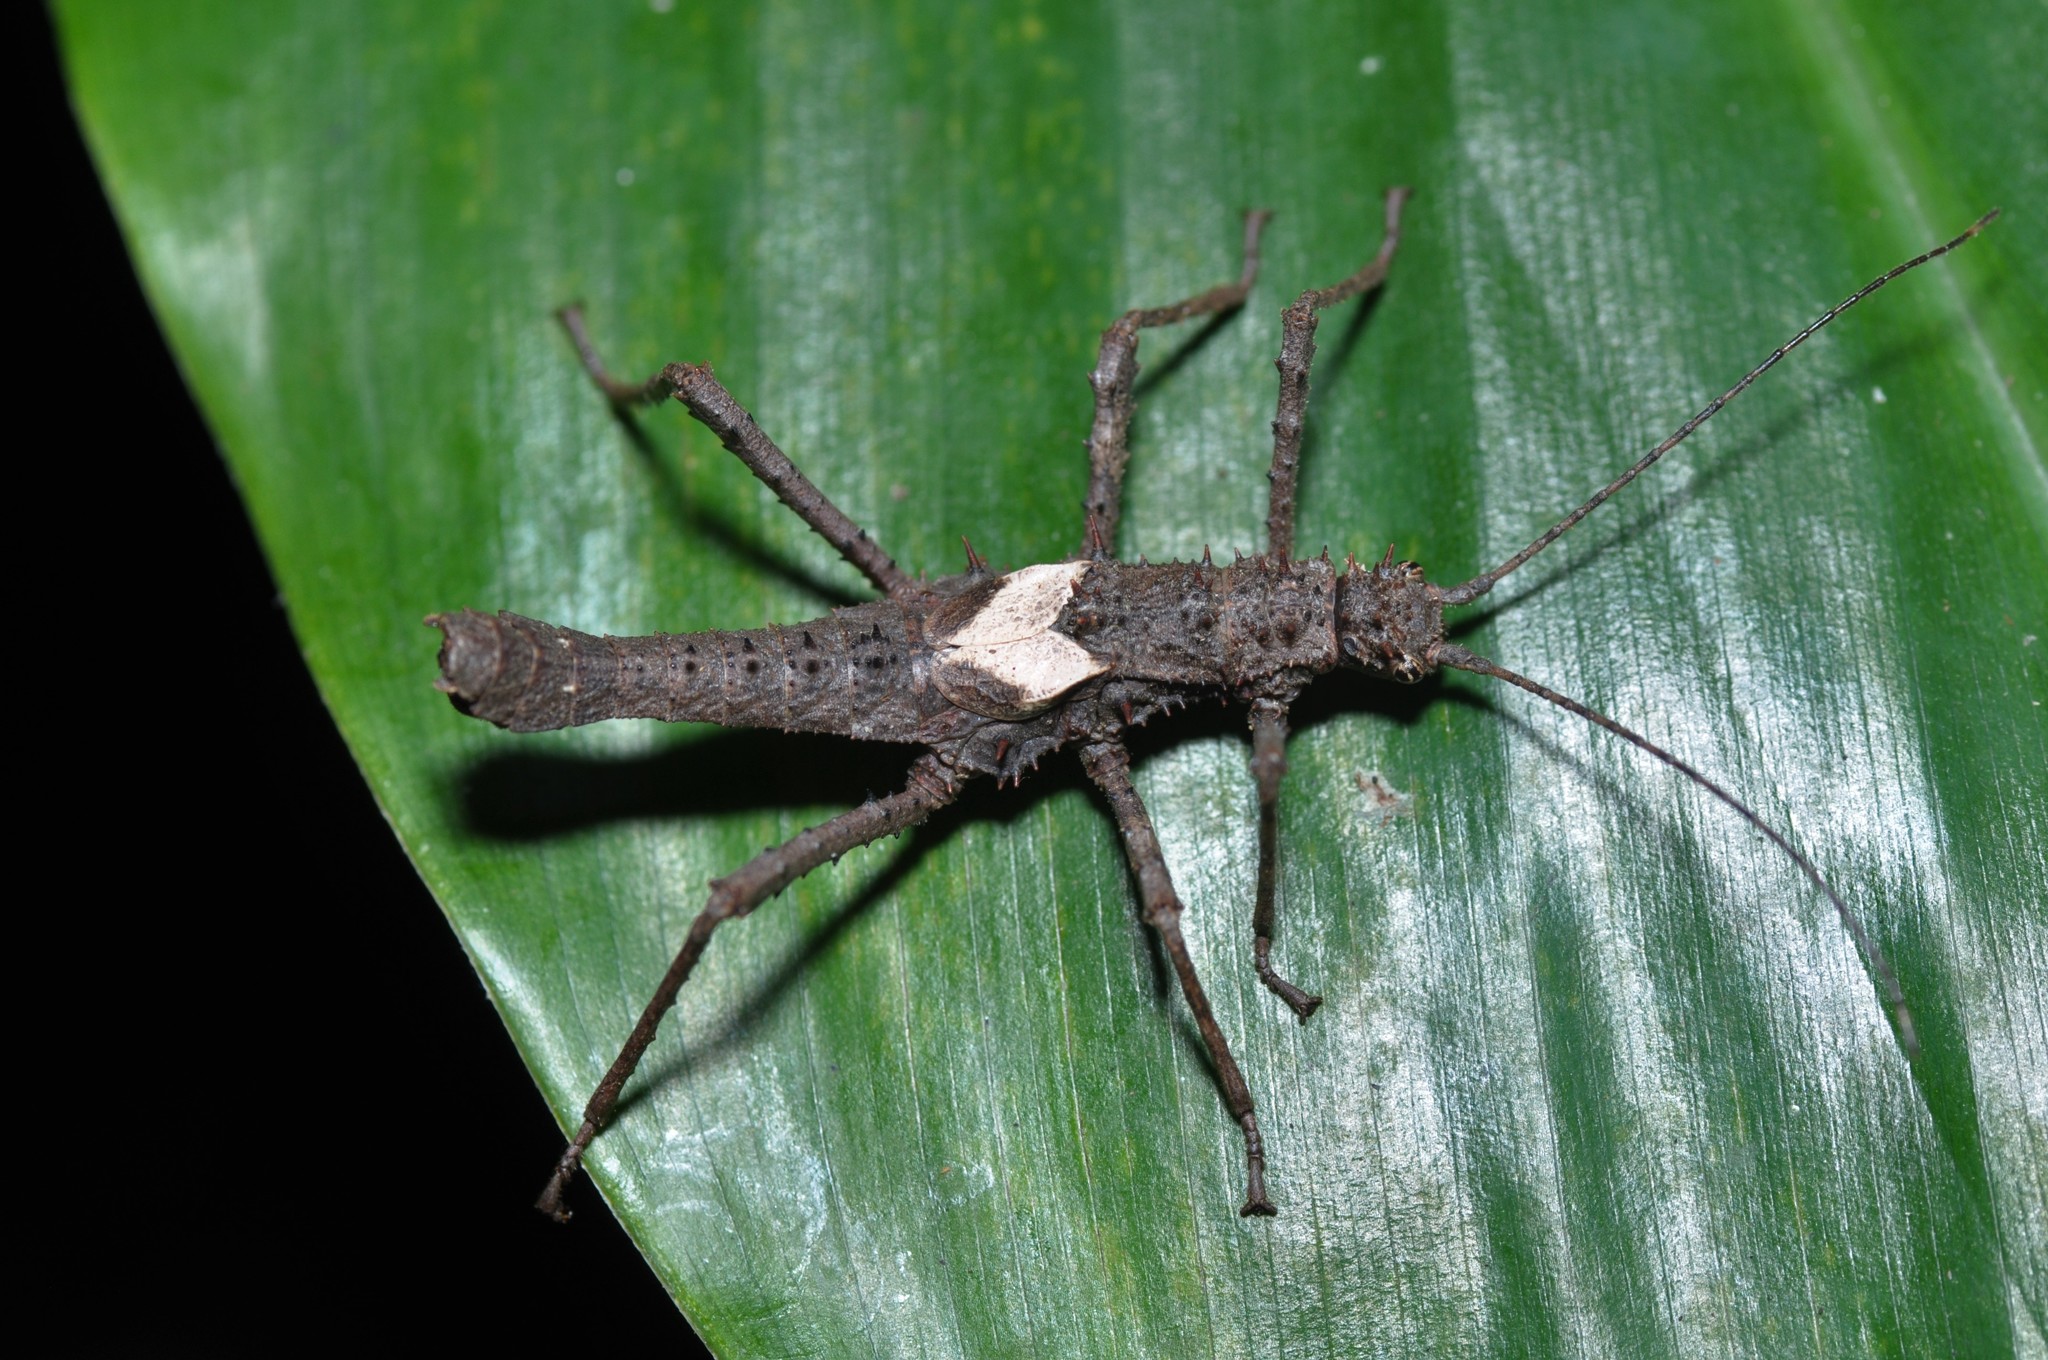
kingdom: Animalia
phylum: Arthropoda
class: Insecta
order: Phasmida
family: Heteropterygidae
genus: Haaniella
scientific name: Haaniella parva
